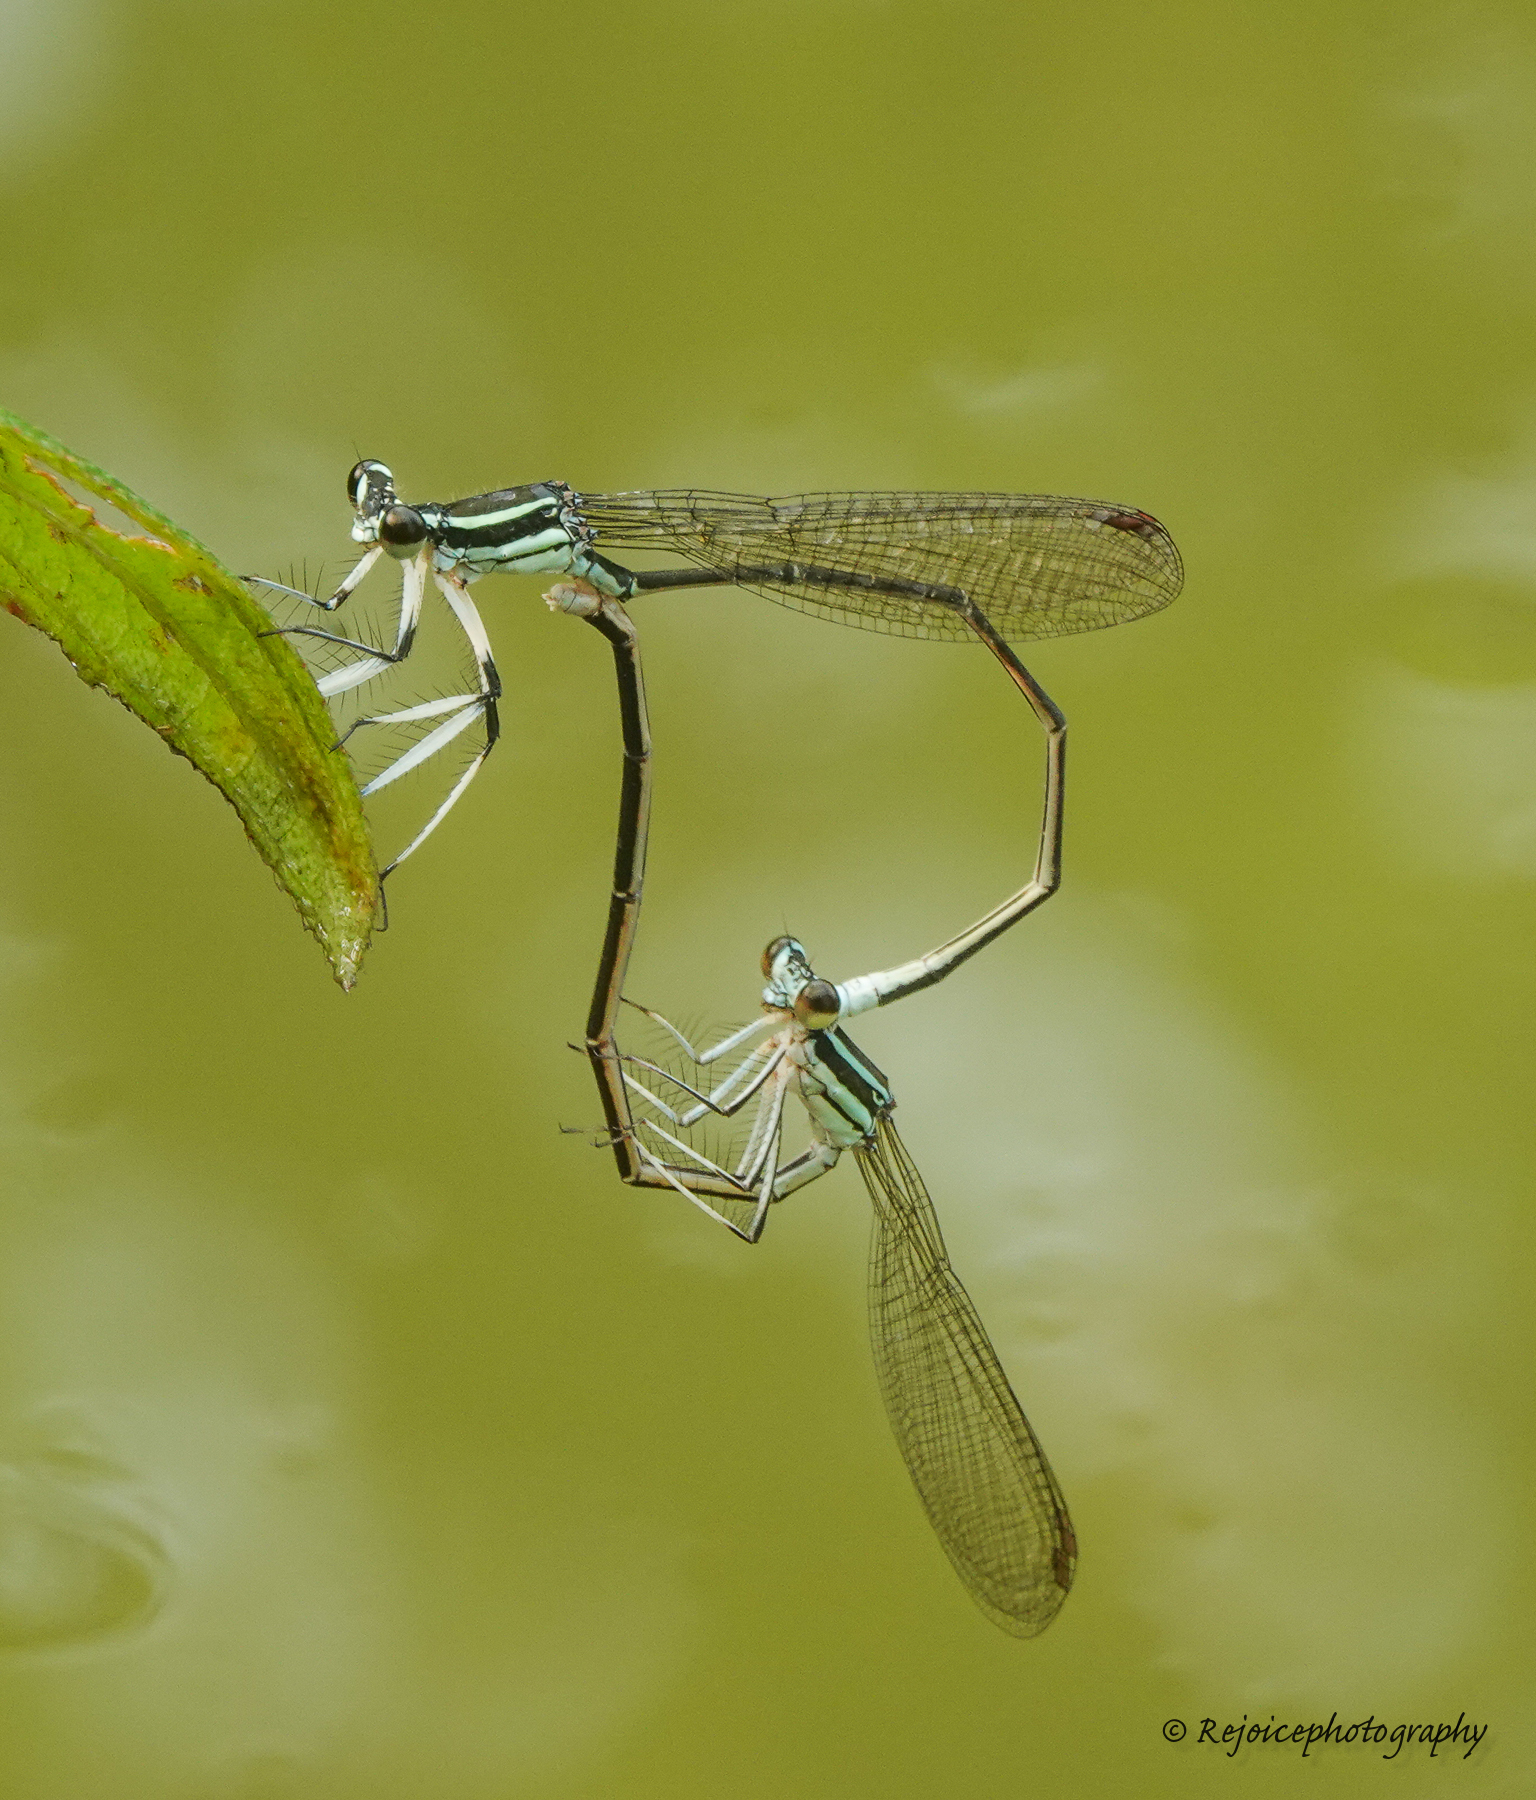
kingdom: Animalia
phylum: Arthropoda
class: Insecta
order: Odonata
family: Platycnemididae
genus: Pseudocopera
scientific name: Pseudocopera ciliata
